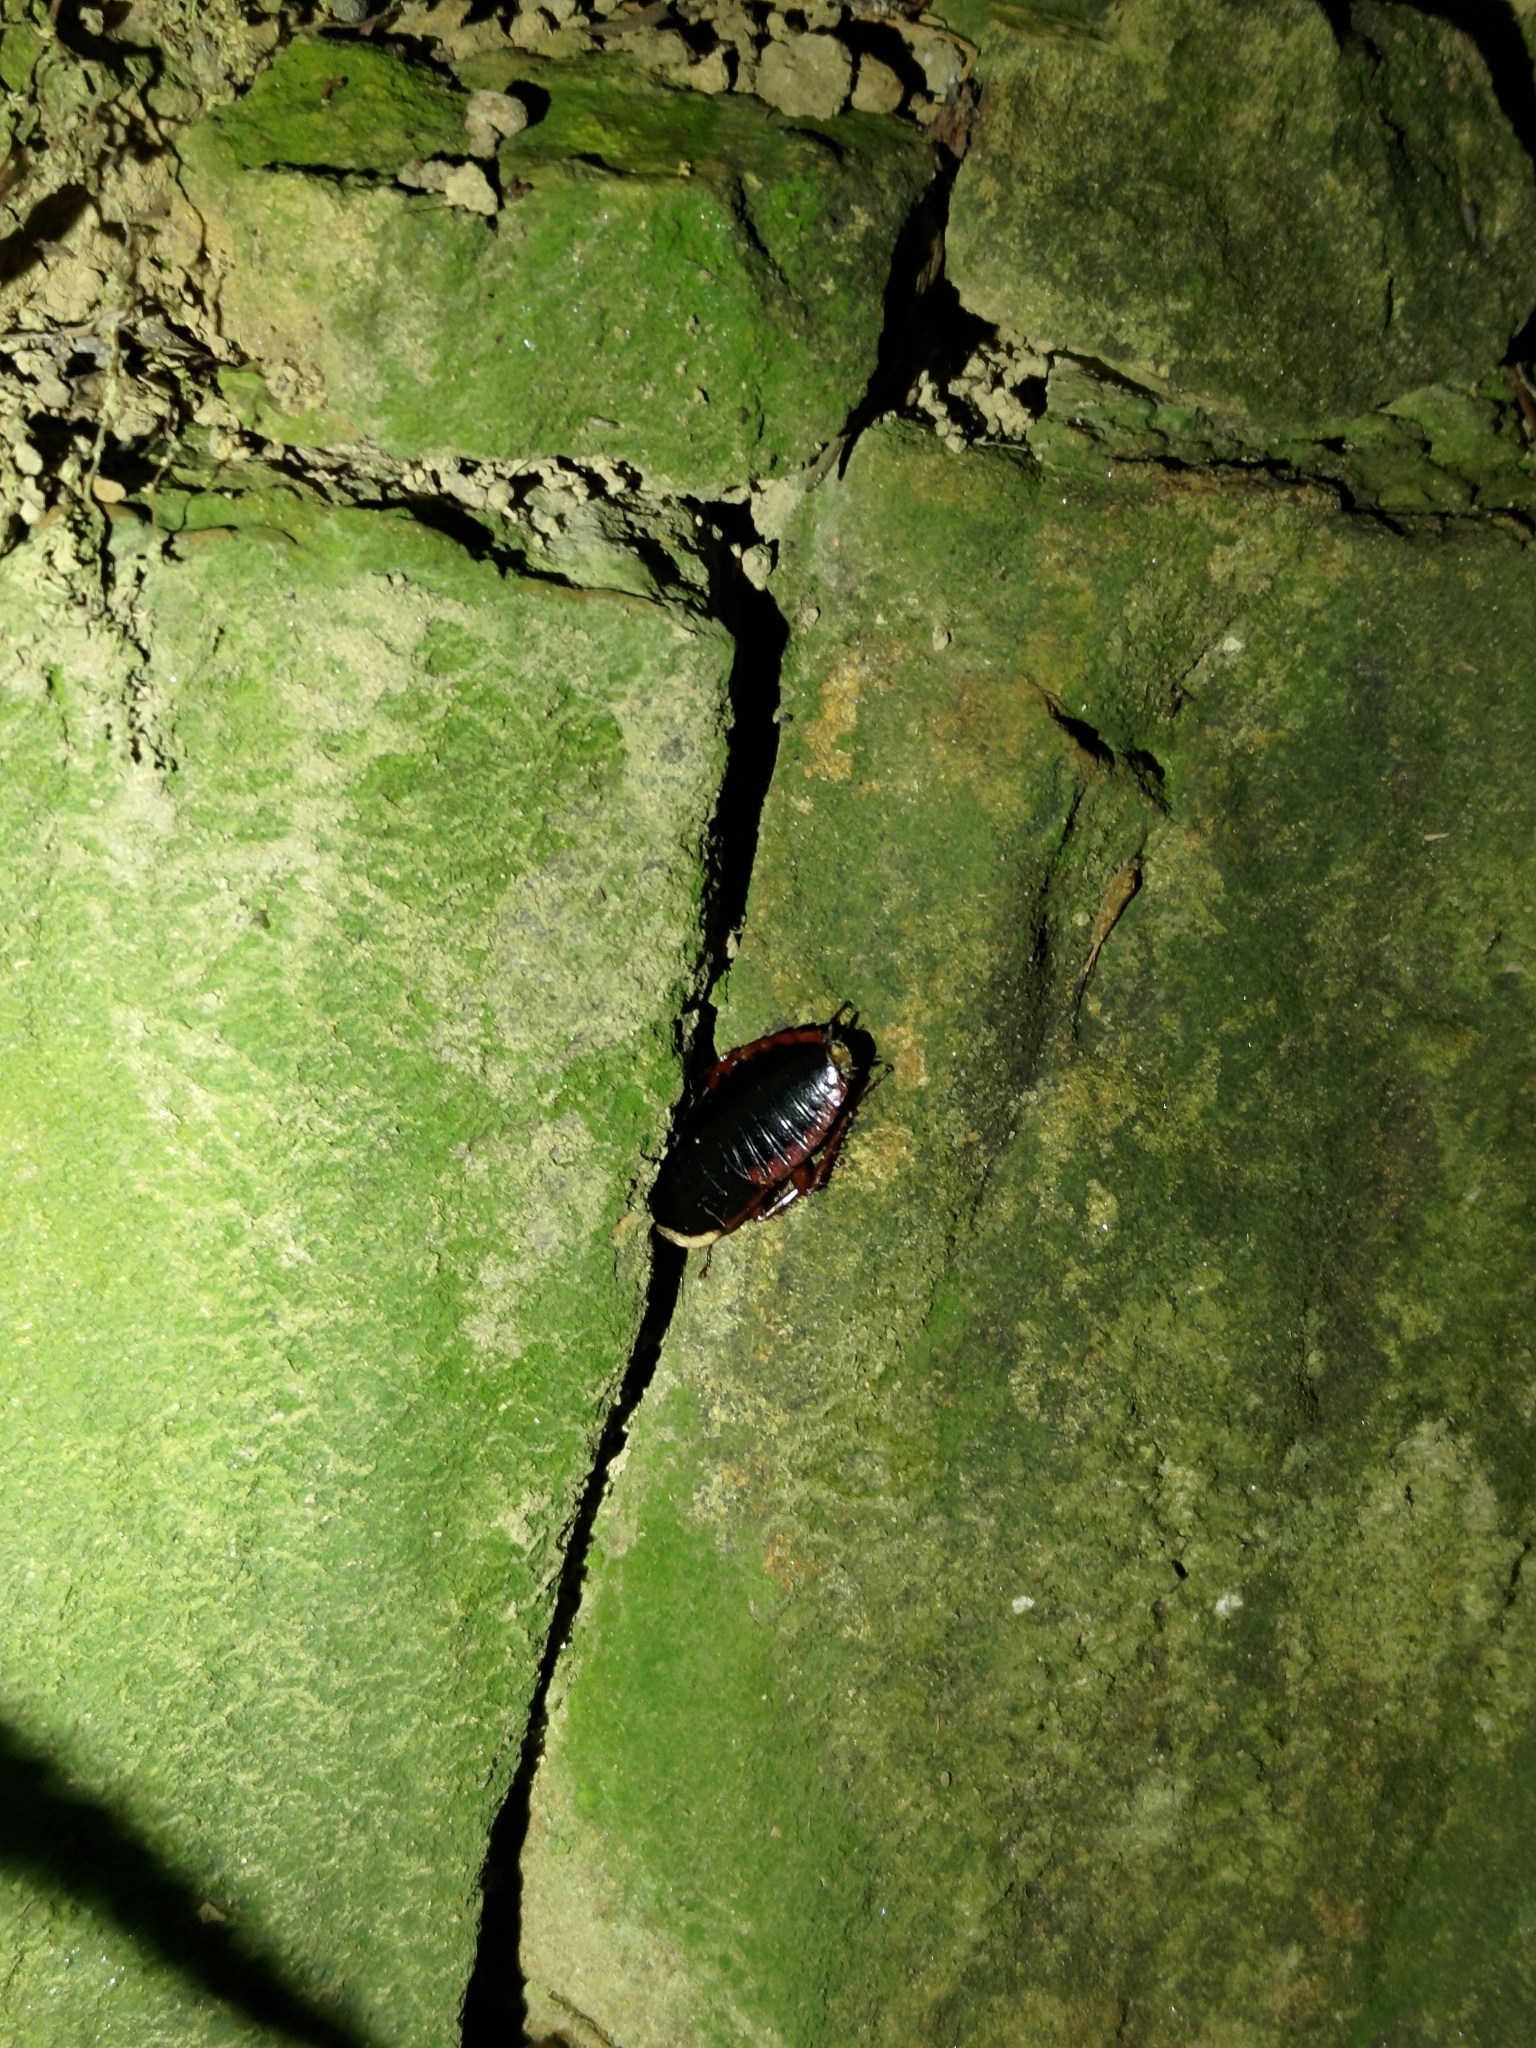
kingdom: Animalia
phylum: Arthropoda
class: Insecta
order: Blattodea
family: Blaberidae
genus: Opisthoplatia
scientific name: Opisthoplatia orientalis
